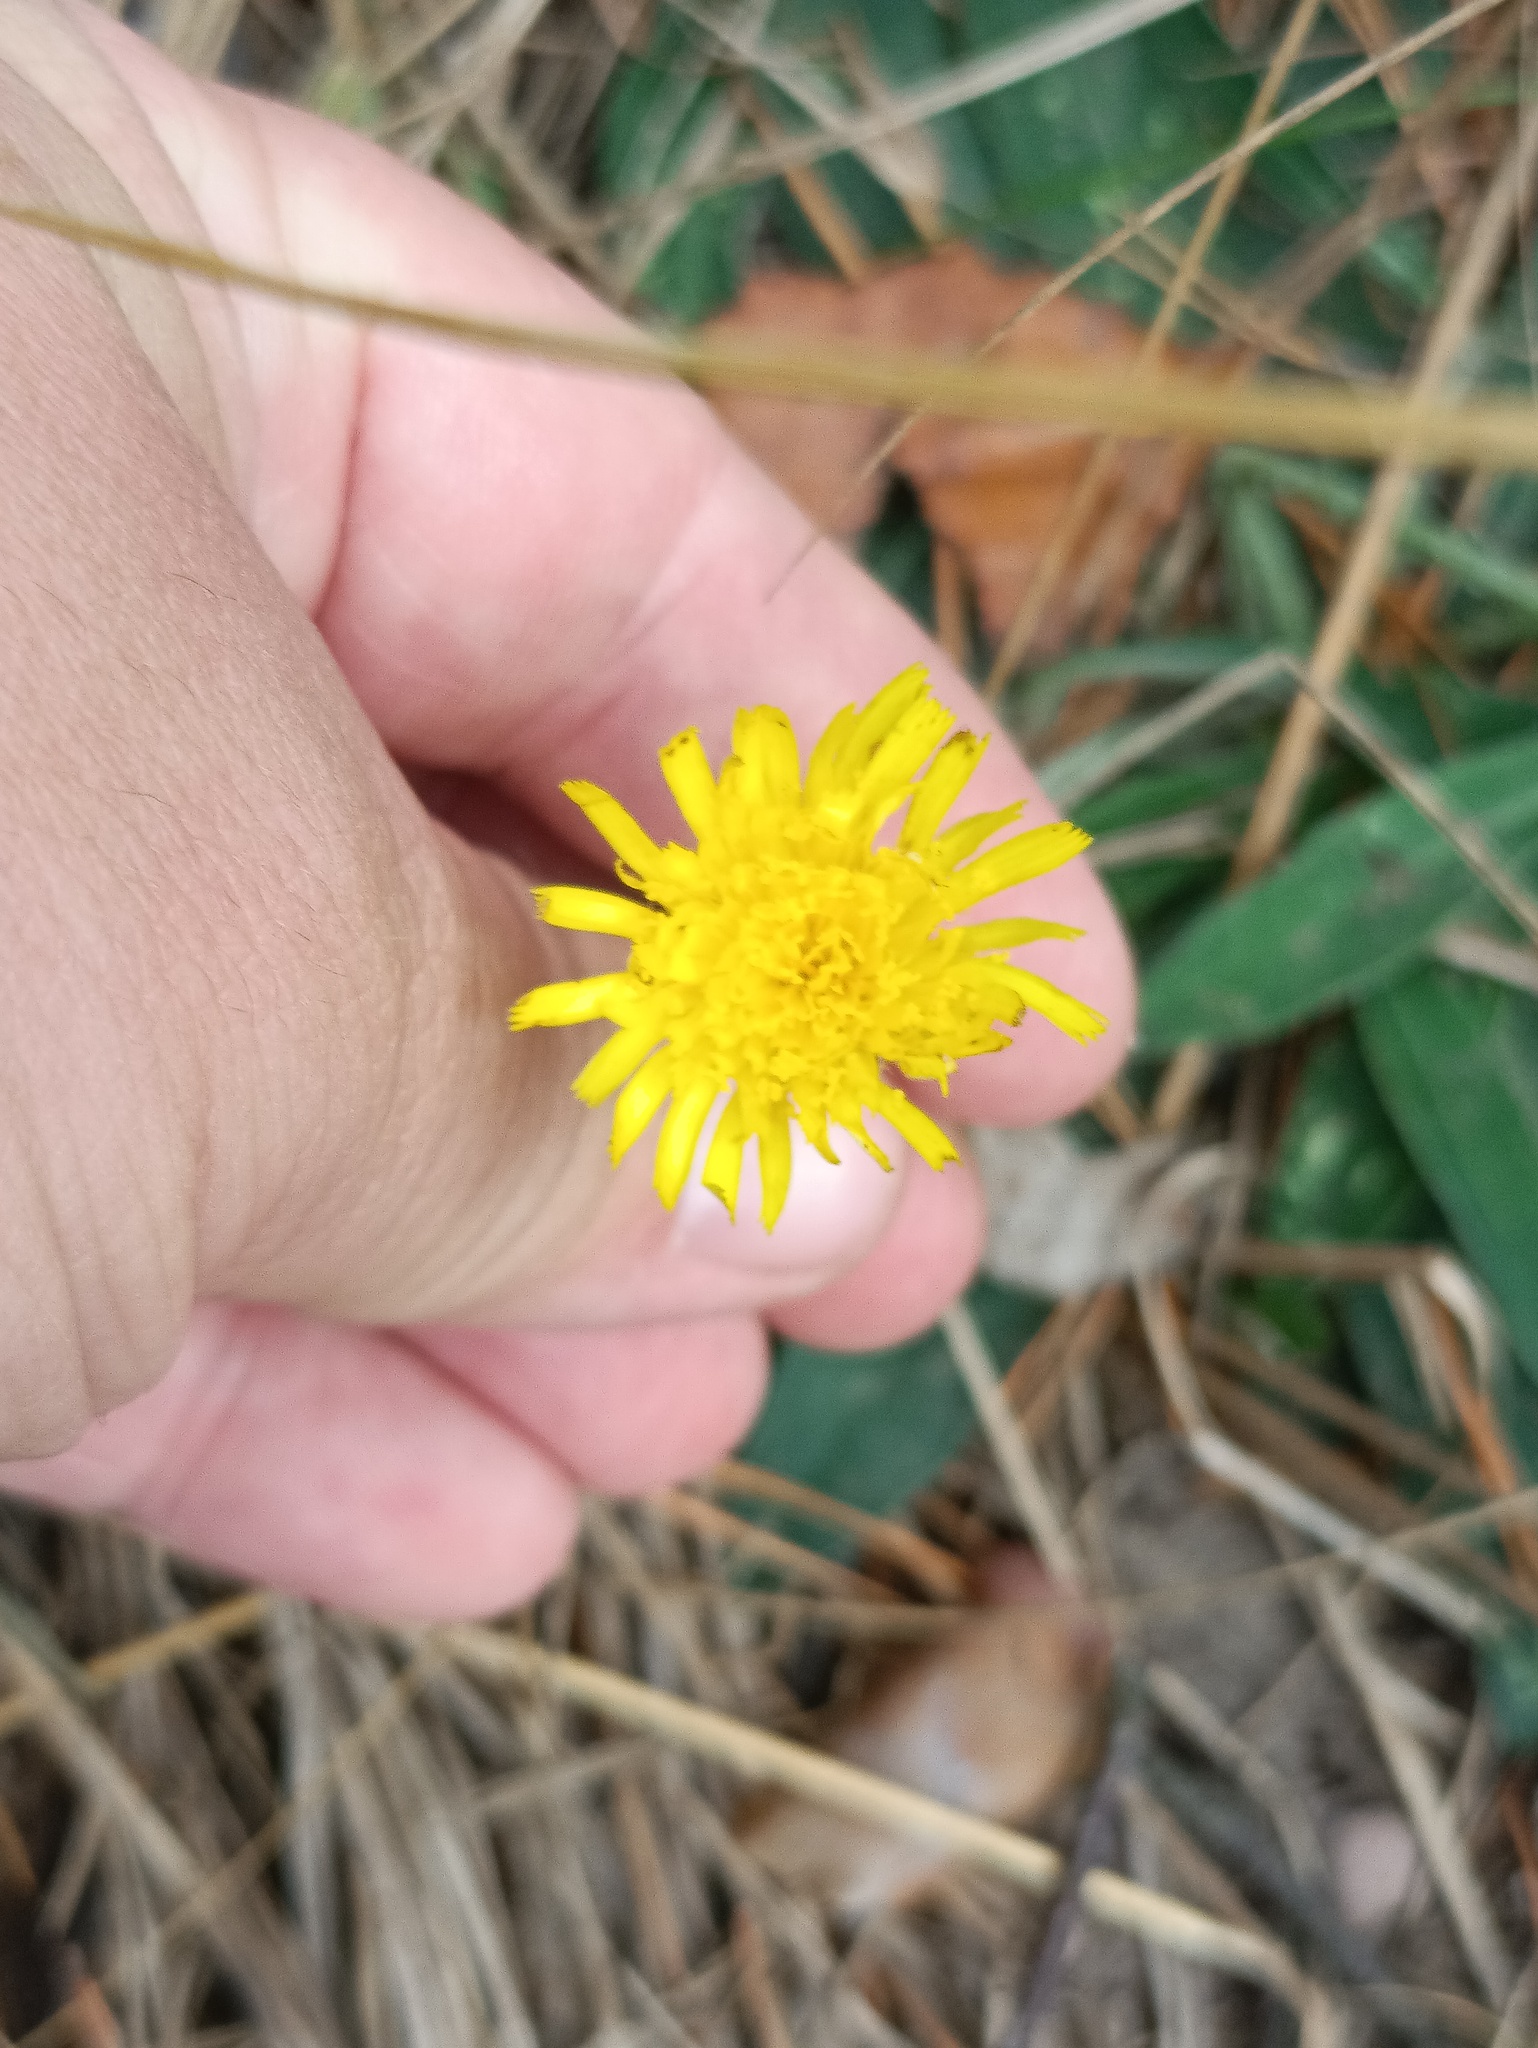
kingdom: Plantae
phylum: Tracheophyta
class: Magnoliopsida
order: Asterales
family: Asteraceae
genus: Pilosella
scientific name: Pilosella officinarum
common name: Mouse-ear hawkweed
